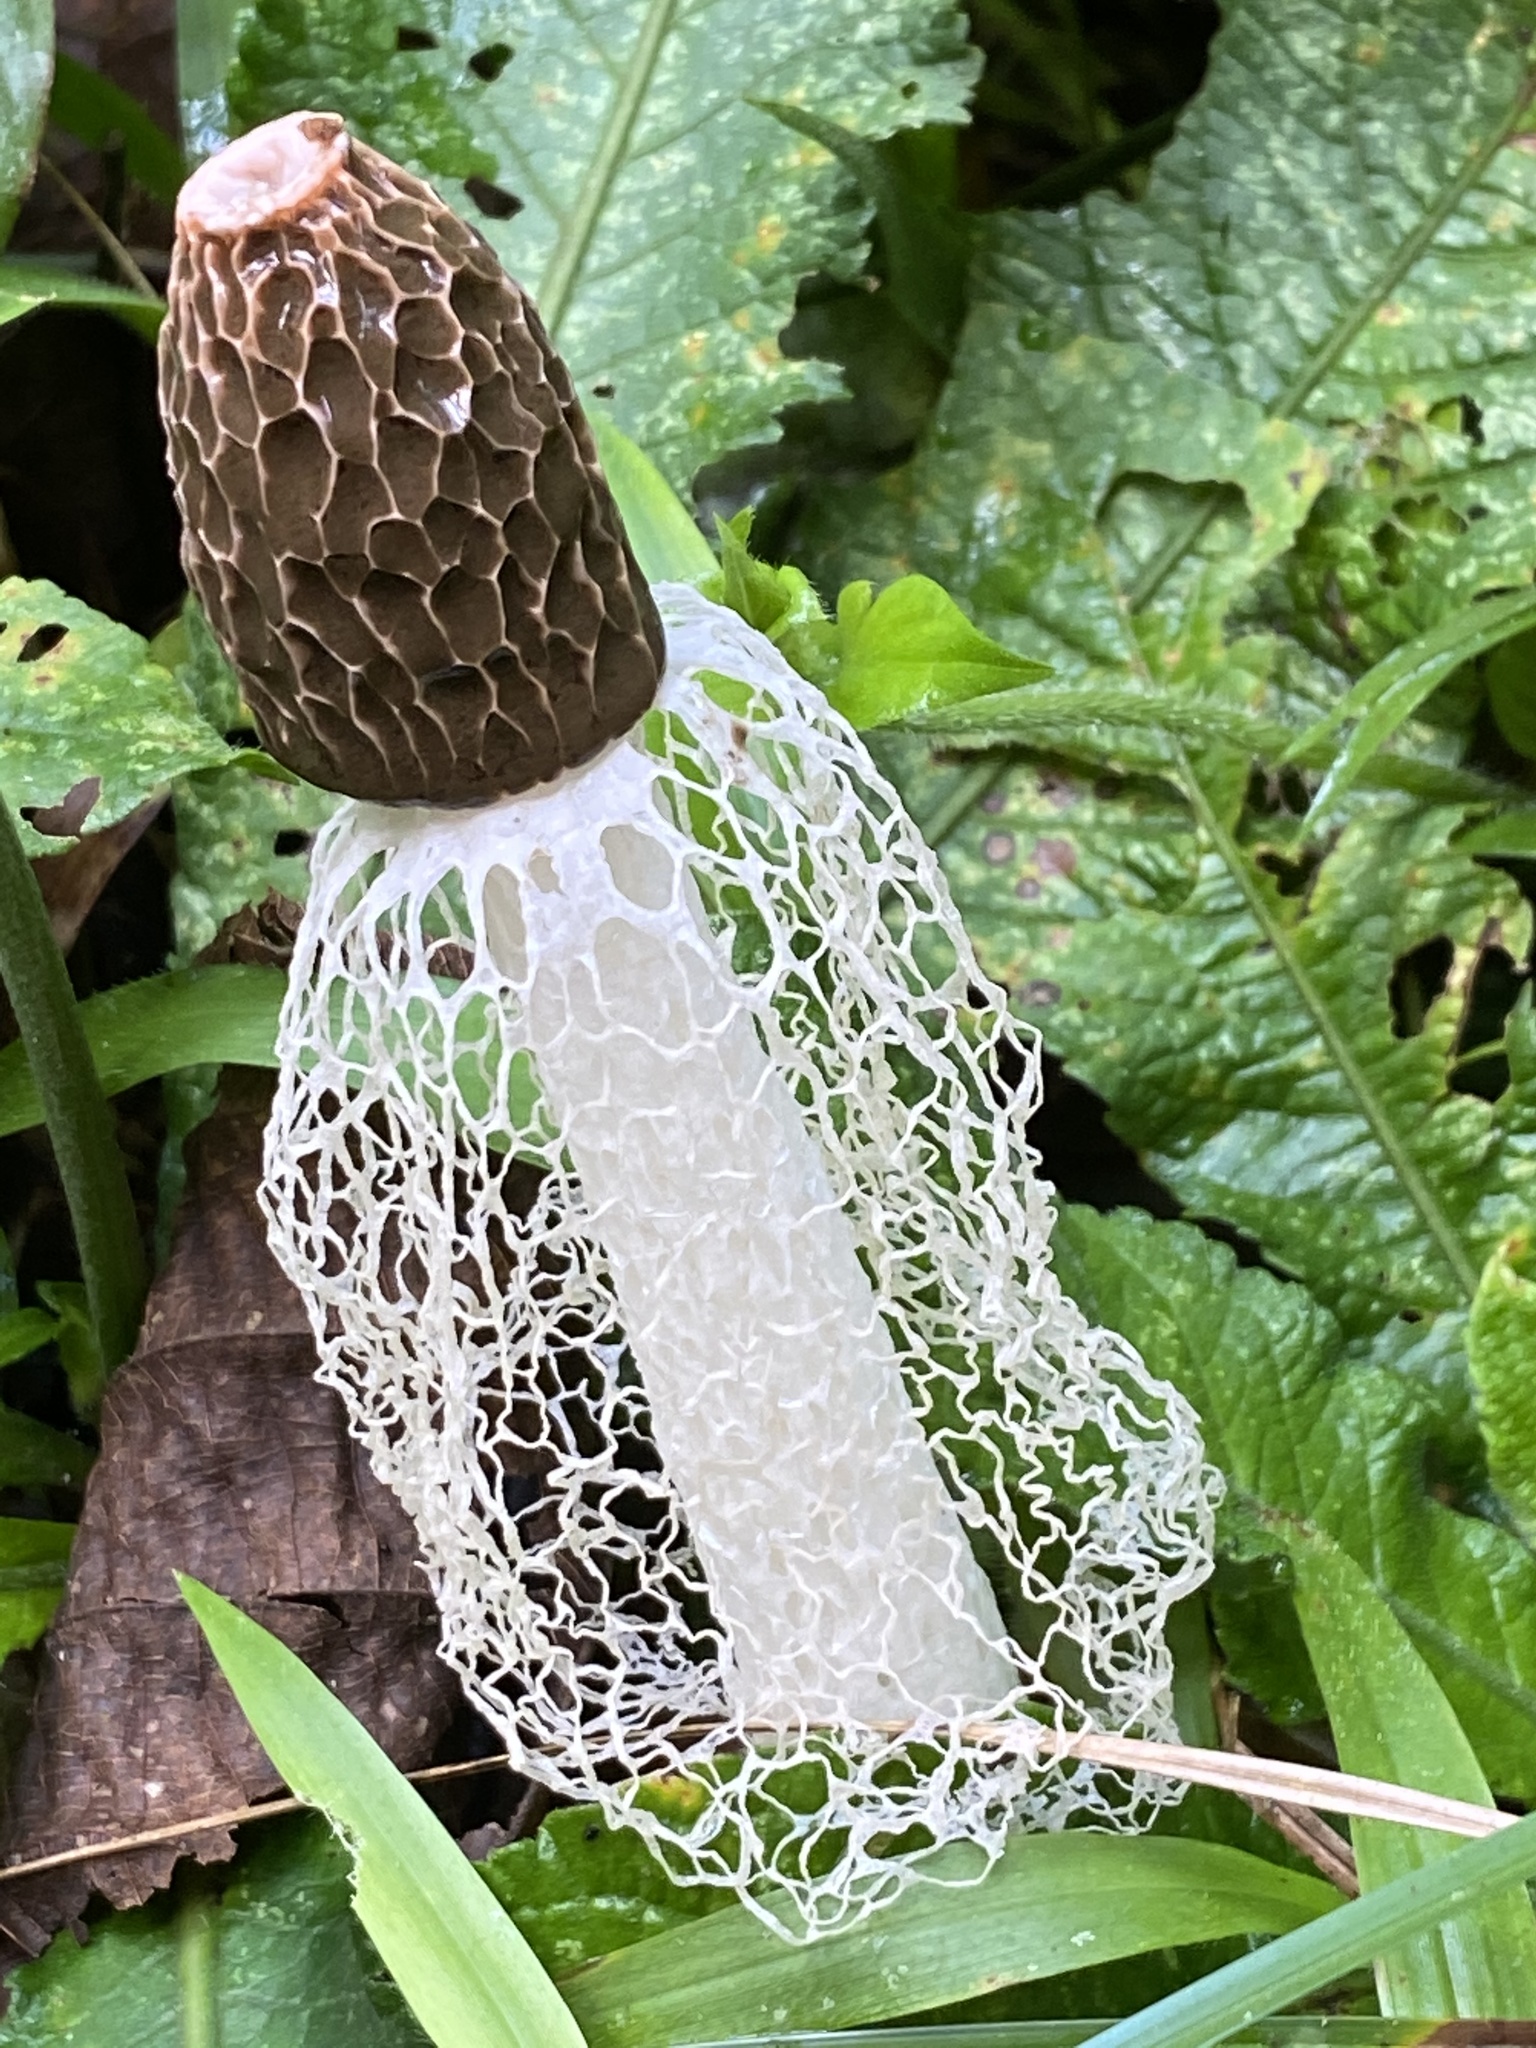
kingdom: Fungi
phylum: Basidiomycota
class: Agaricomycetes
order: Phallales
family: Phallaceae
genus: Phallus
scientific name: Phallus indusiatus
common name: Bridal veil stinkhorn
